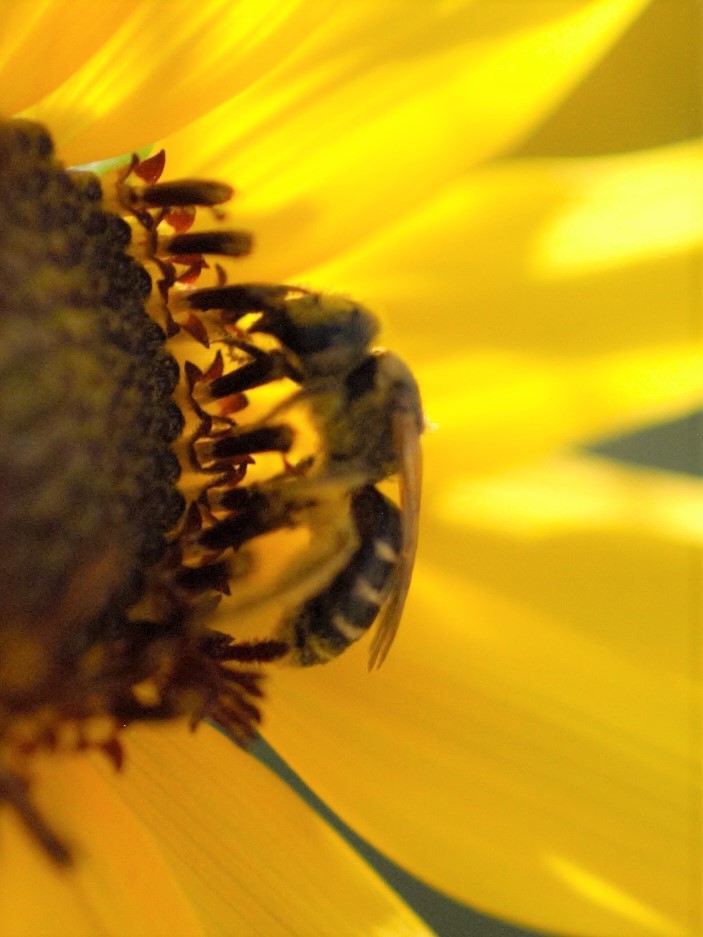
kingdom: Animalia
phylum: Arthropoda
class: Insecta
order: Hymenoptera
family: Halictidae
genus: Halictus
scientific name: Halictus ligatus
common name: Ligated furrow bee
